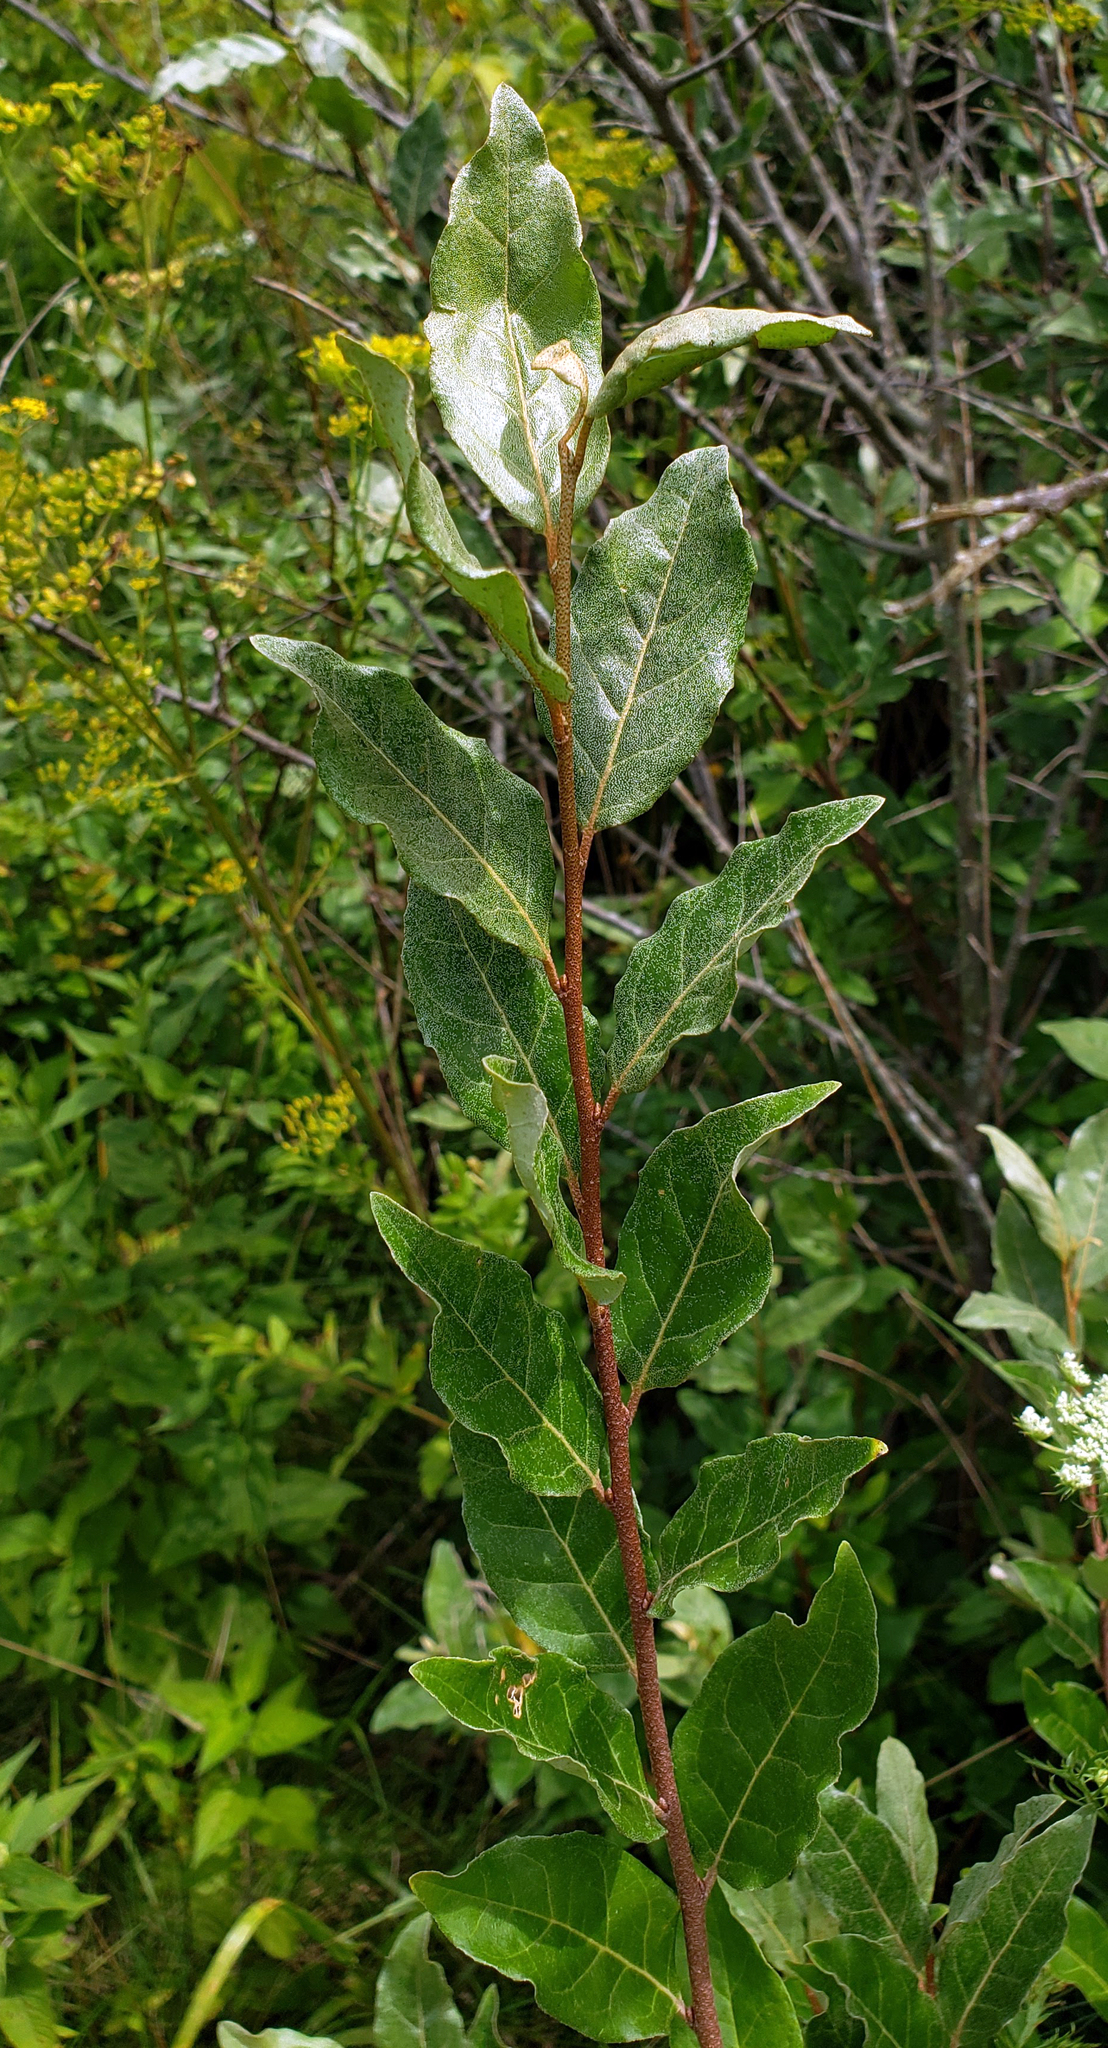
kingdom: Plantae
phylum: Tracheophyta
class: Magnoliopsida
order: Rosales
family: Elaeagnaceae
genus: Elaeagnus
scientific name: Elaeagnus umbellata
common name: Autumn olive
